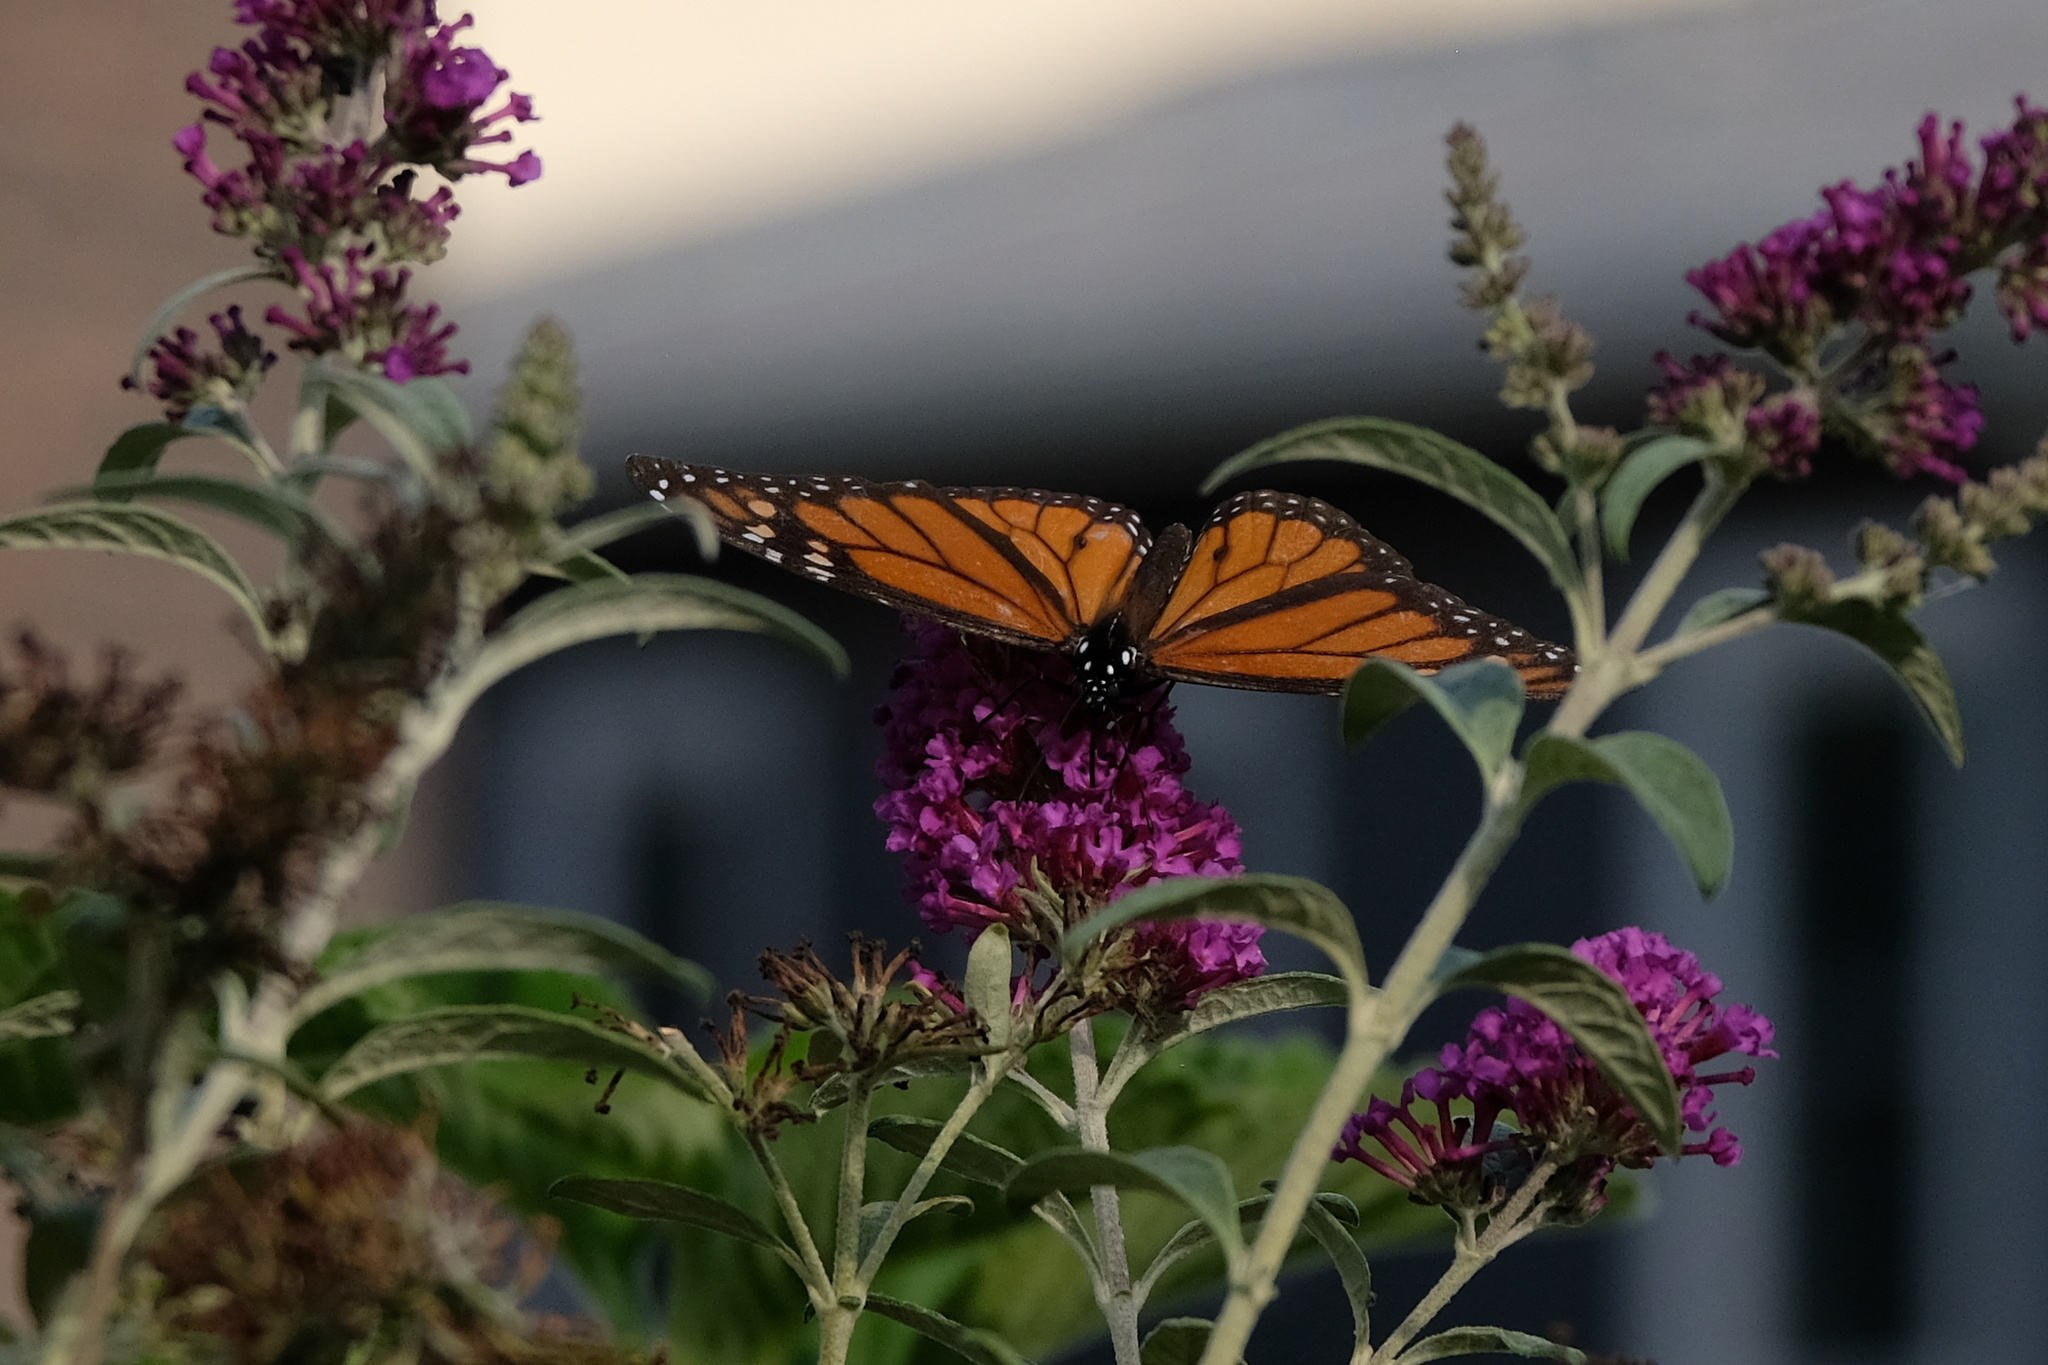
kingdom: Animalia
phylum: Arthropoda
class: Insecta
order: Lepidoptera
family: Nymphalidae
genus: Danaus
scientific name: Danaus plexippus
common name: Monarch
